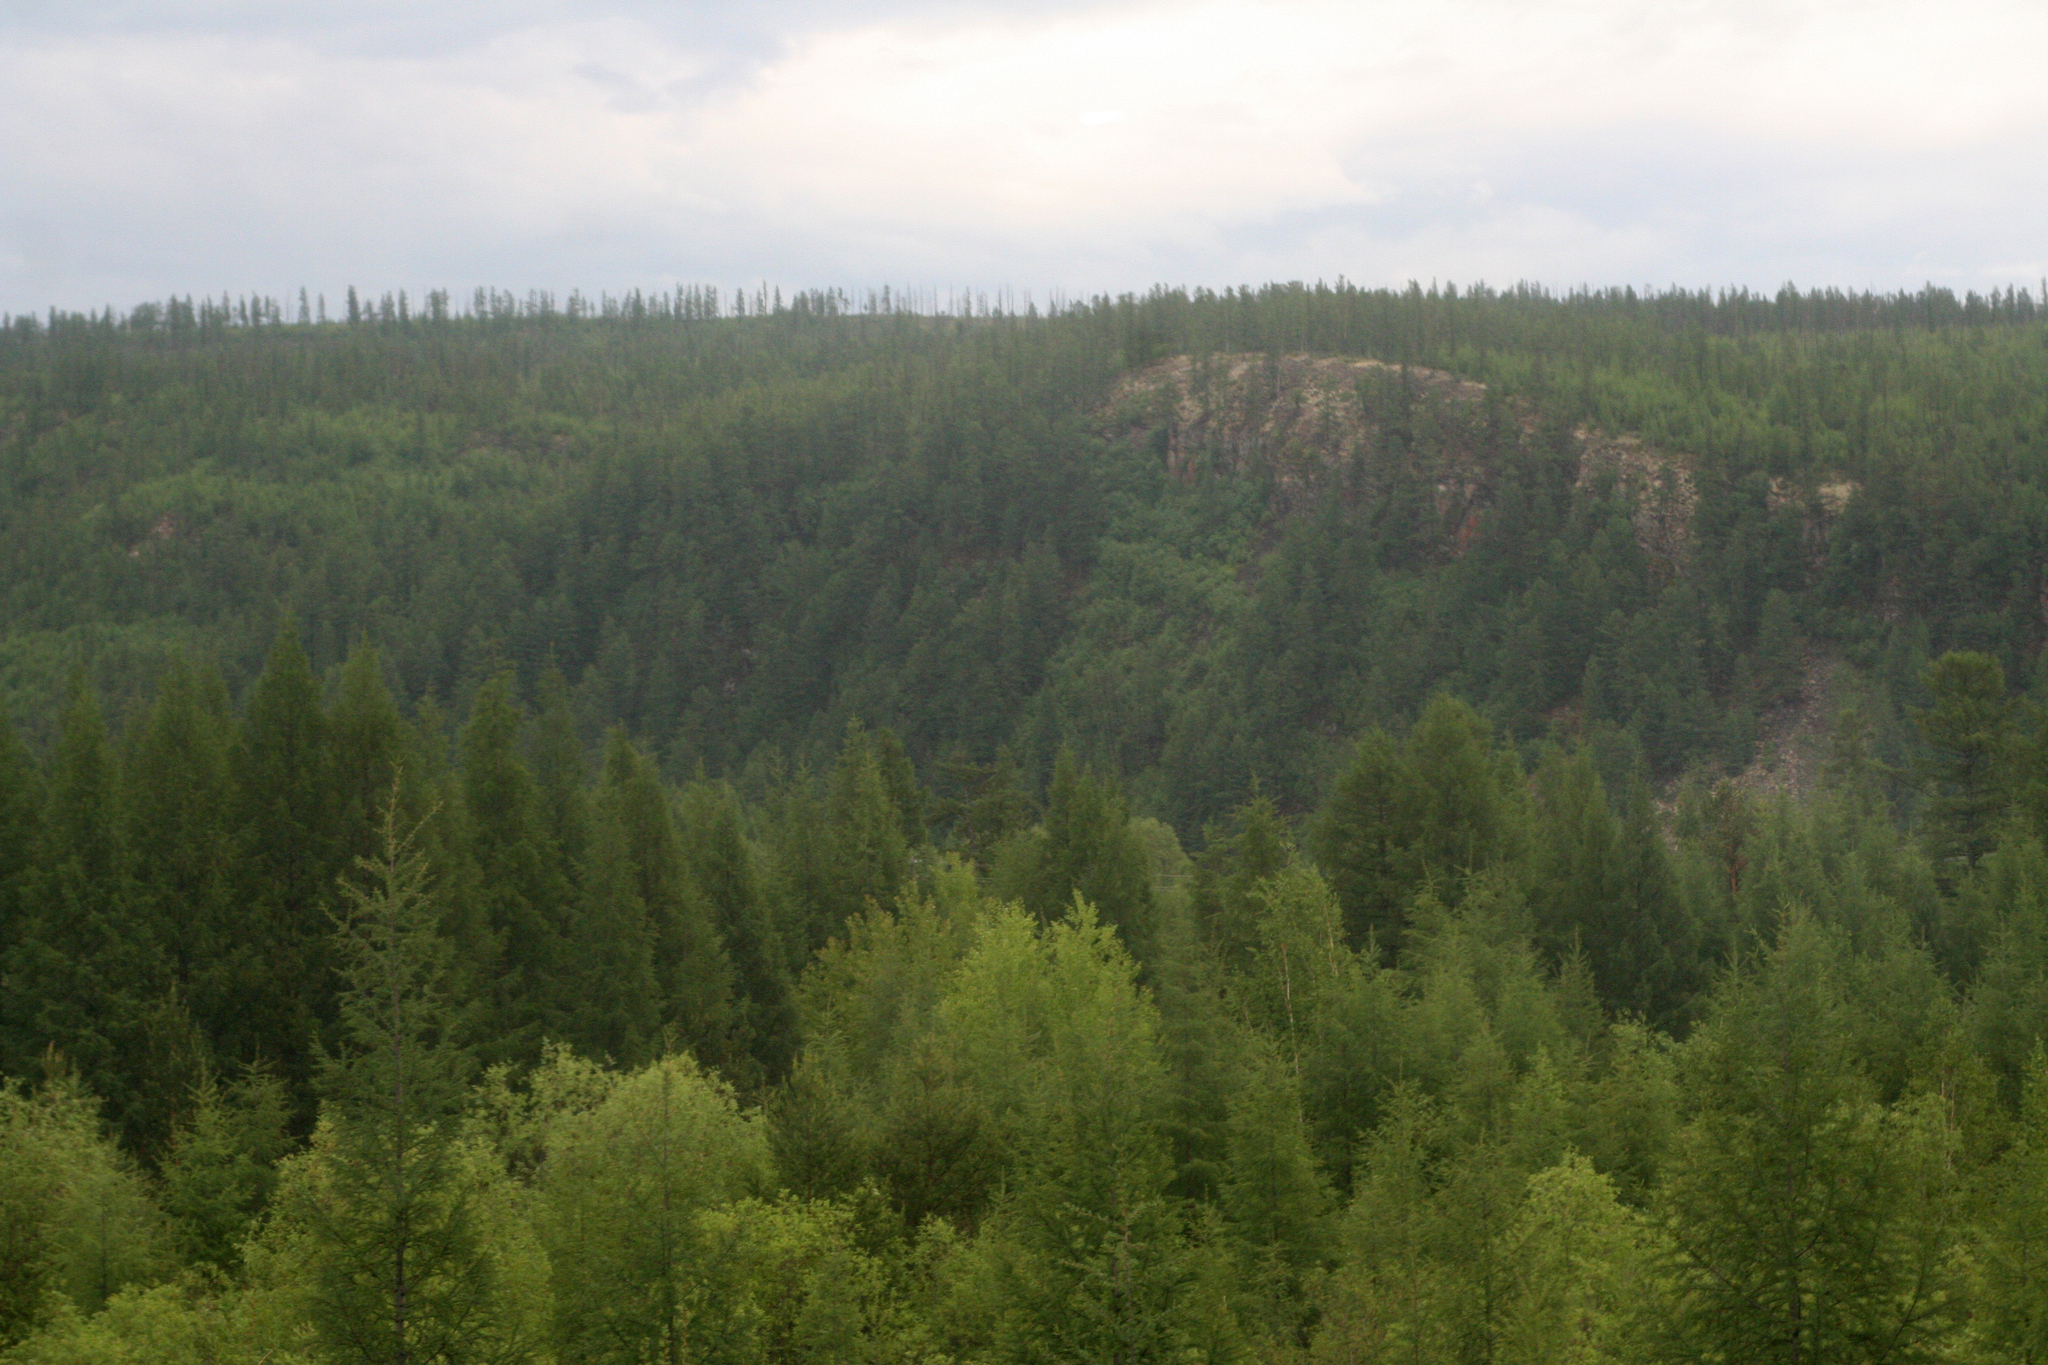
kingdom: Plantae
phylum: Tracheophyta
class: Pinopsida
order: Pinales
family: Pinaceae
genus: Larix
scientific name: Larix gmelinii
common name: Dahurian larch
